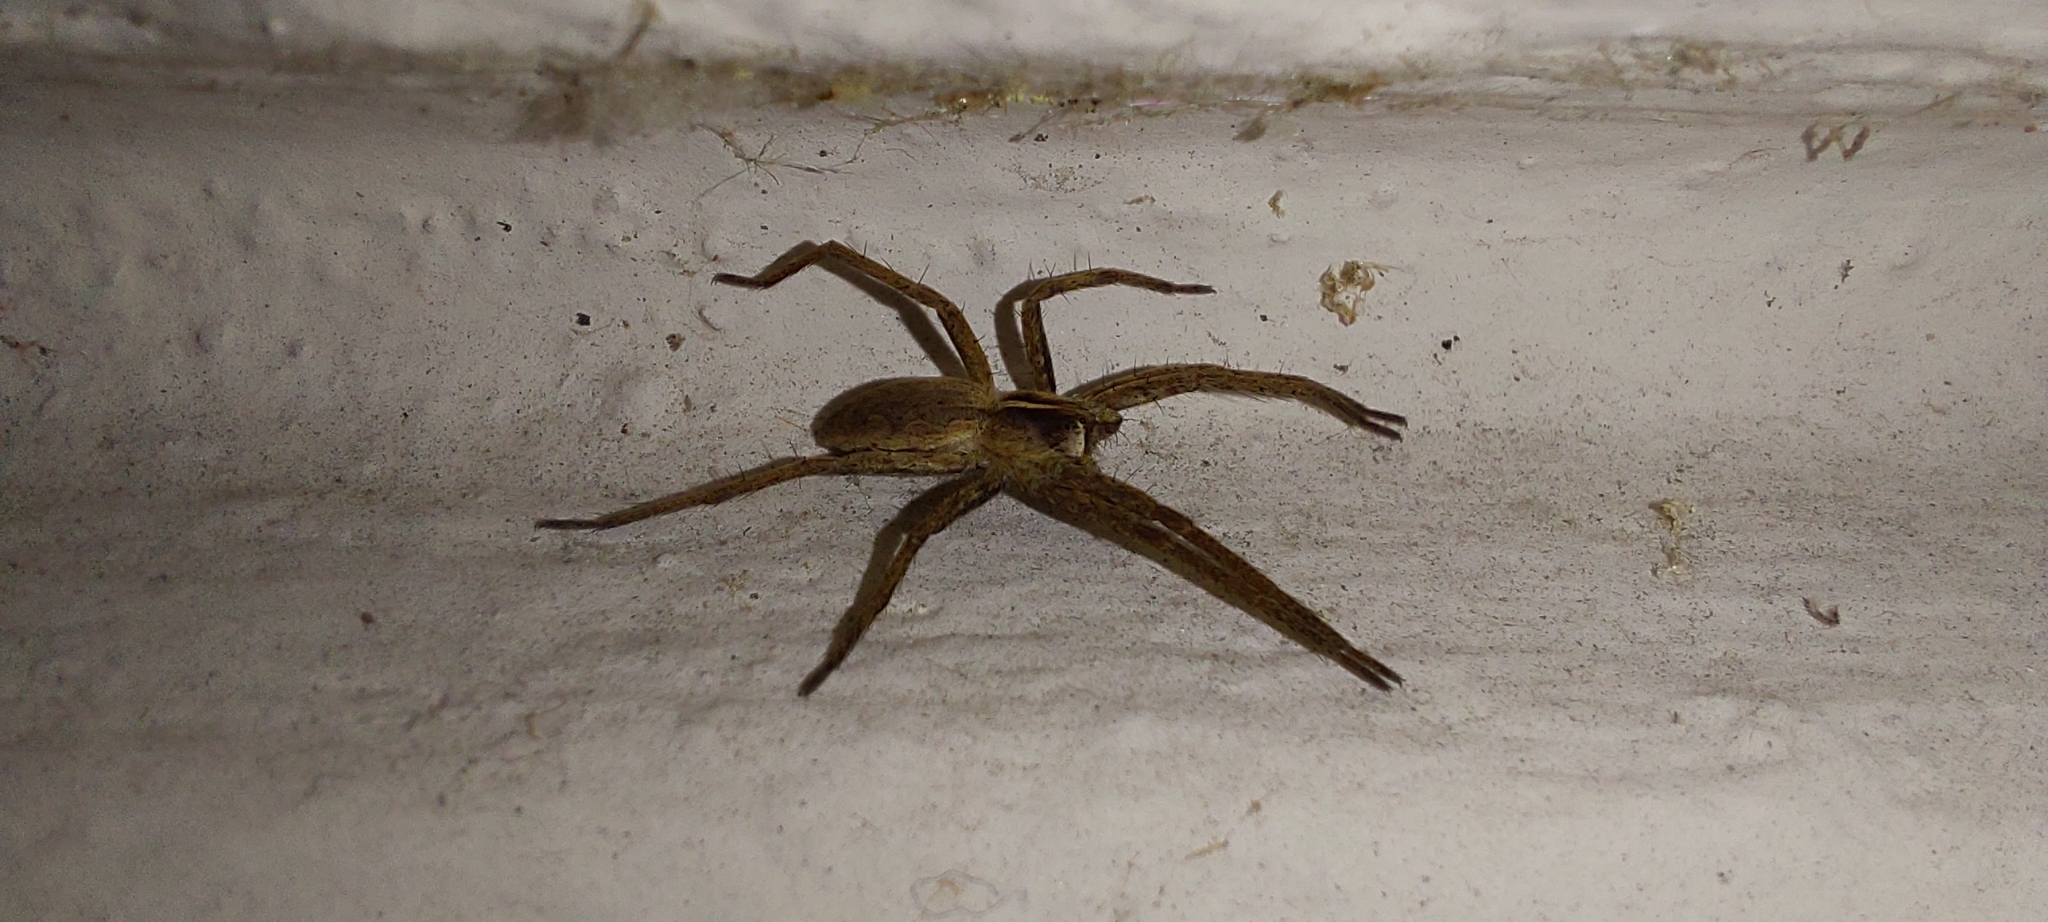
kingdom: Animalia
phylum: Arthropoda
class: Arachnida
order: Araneae
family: Pisauridae
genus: Pisaura
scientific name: Pisaura mirabilis
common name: Tent spider
